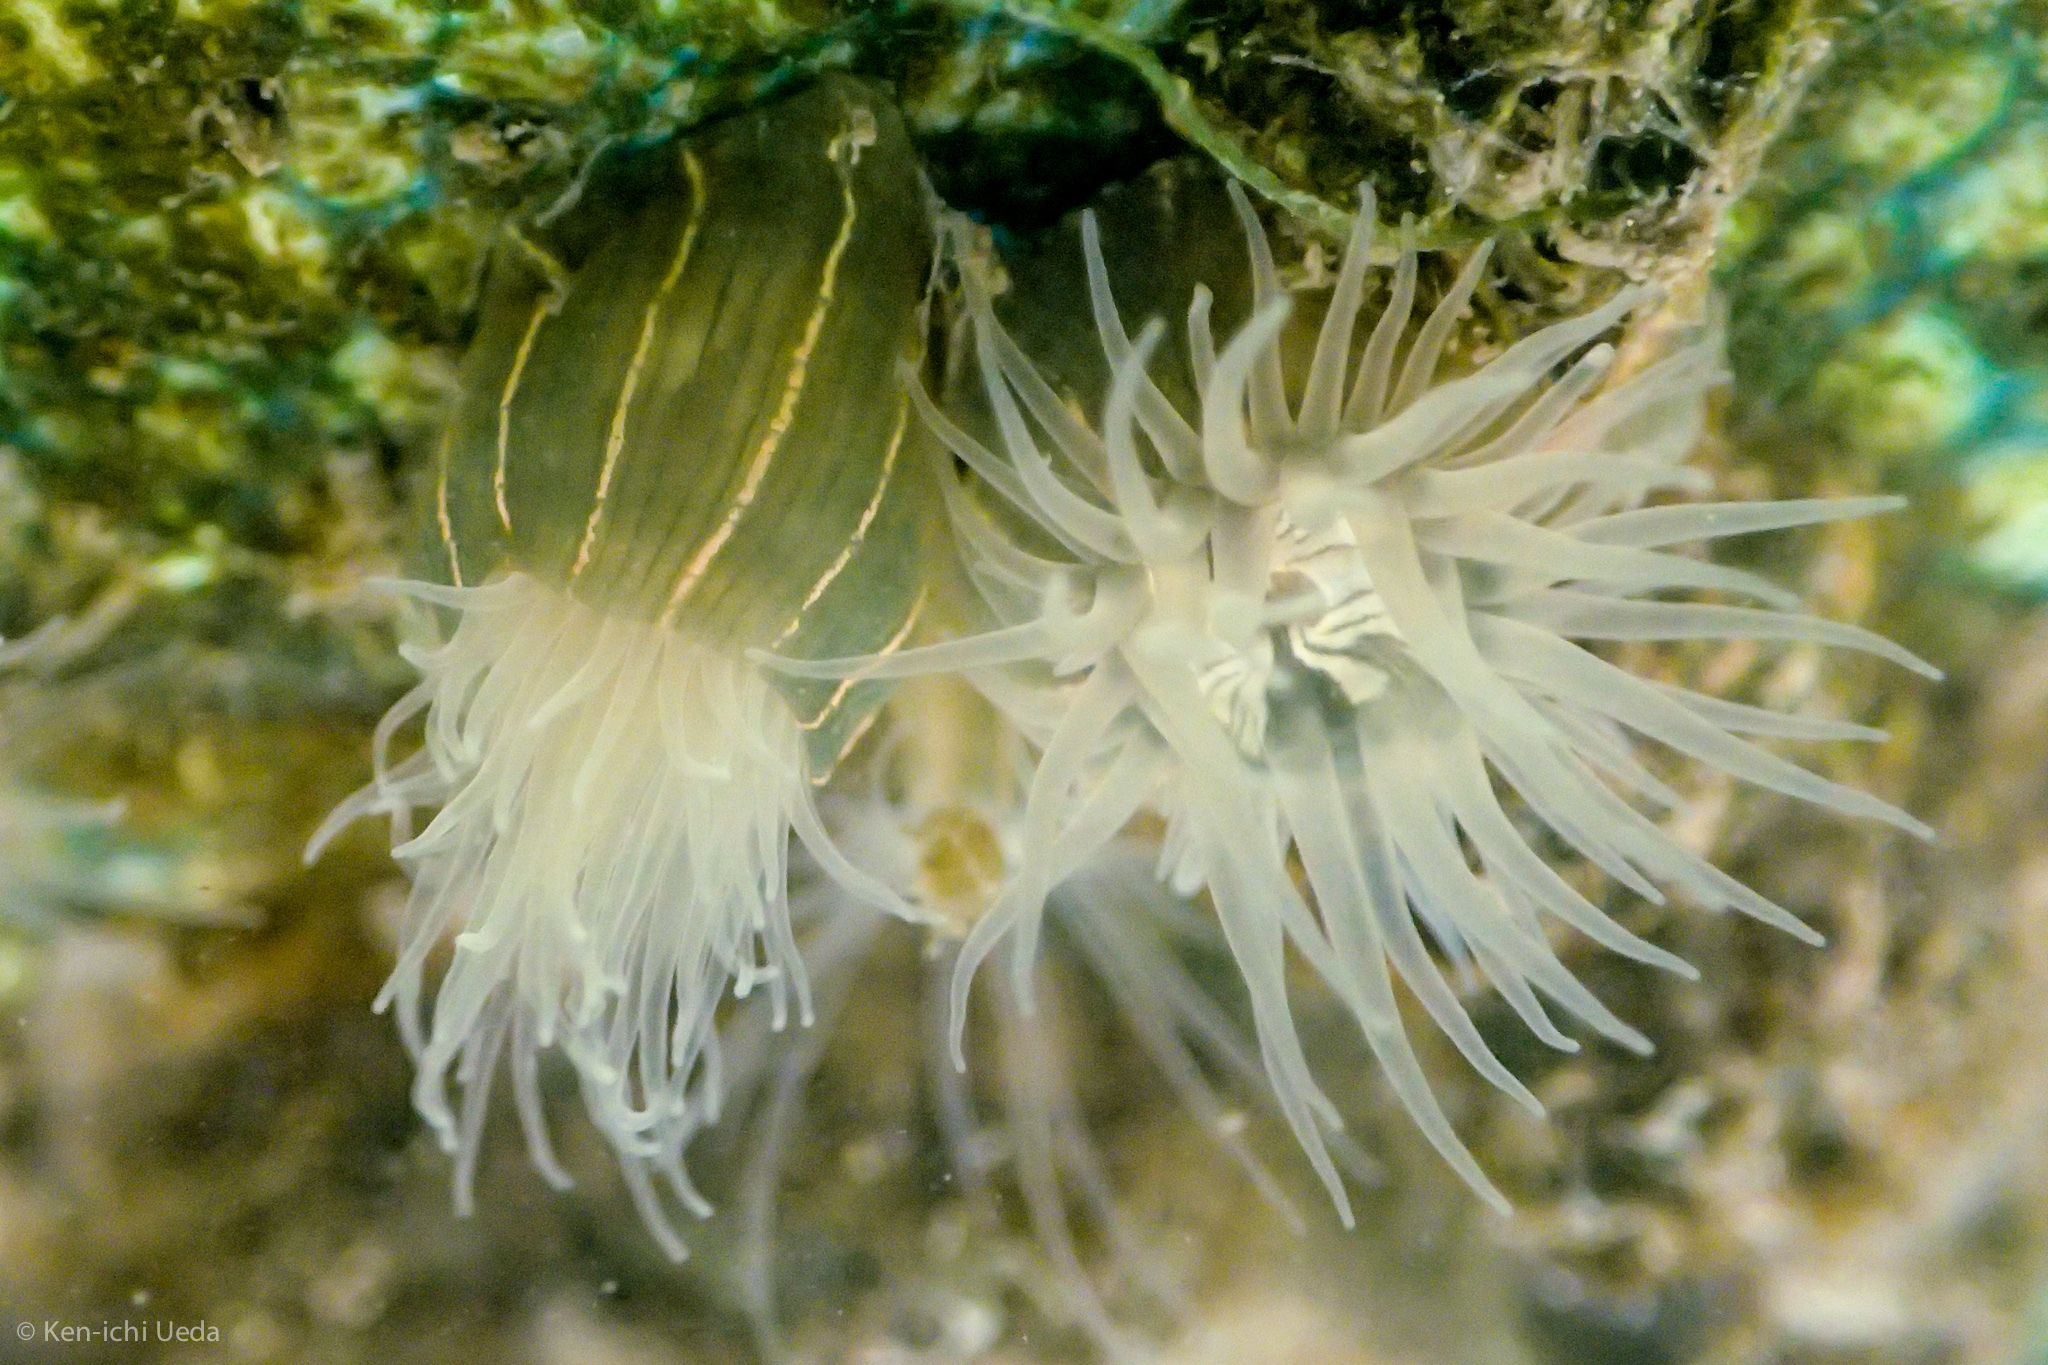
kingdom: Animalia
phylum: Cnidaria
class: Anthozoa
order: Actiniaria
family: Diadumenidae
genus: Diadumene
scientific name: Diadumene lineata
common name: Orange-striped anemone
